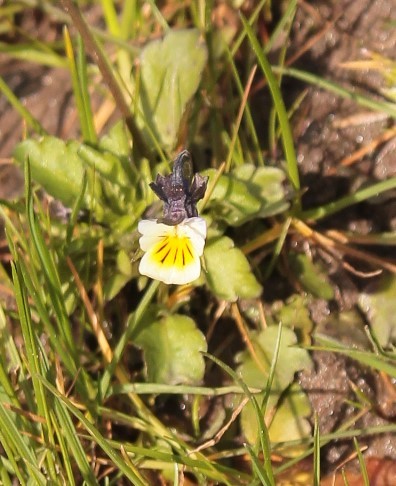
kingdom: Plantae
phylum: Tracheophyta
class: Magnoliopsida
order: Malpighiales
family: Violaceae
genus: Viola
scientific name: Viola arvensis
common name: Field pansy
